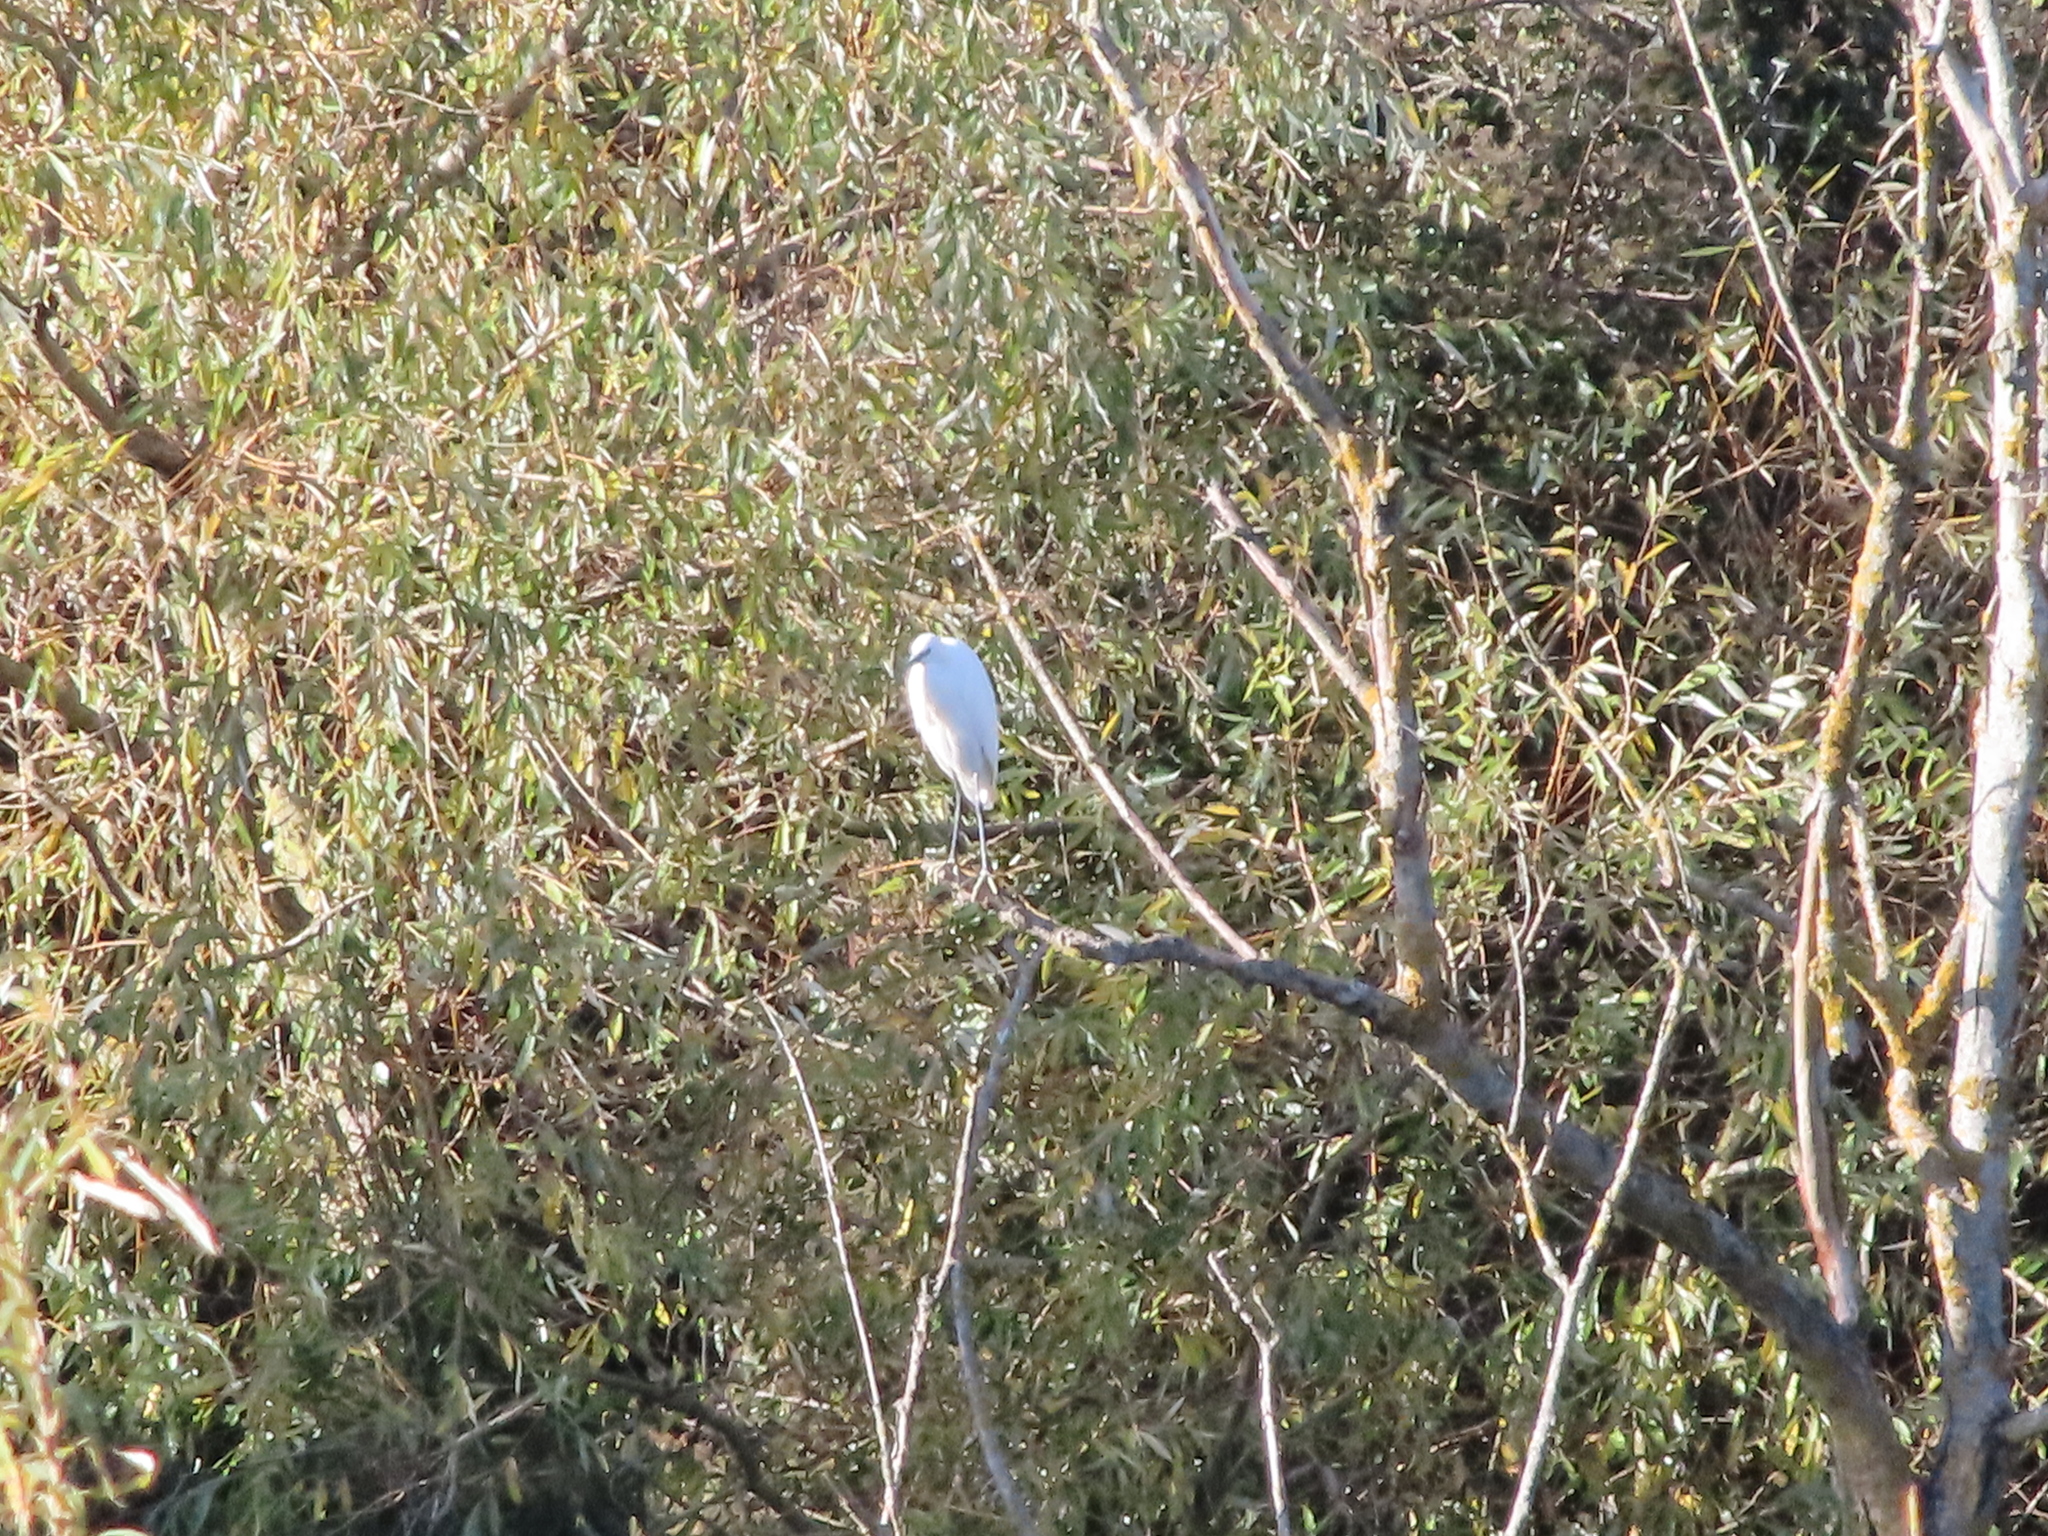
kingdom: Animalia
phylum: Chordata
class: Aves
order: Pelecaniformes
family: Ardeidae
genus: Egretta
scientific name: Egretta garzetta
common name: Little egret
